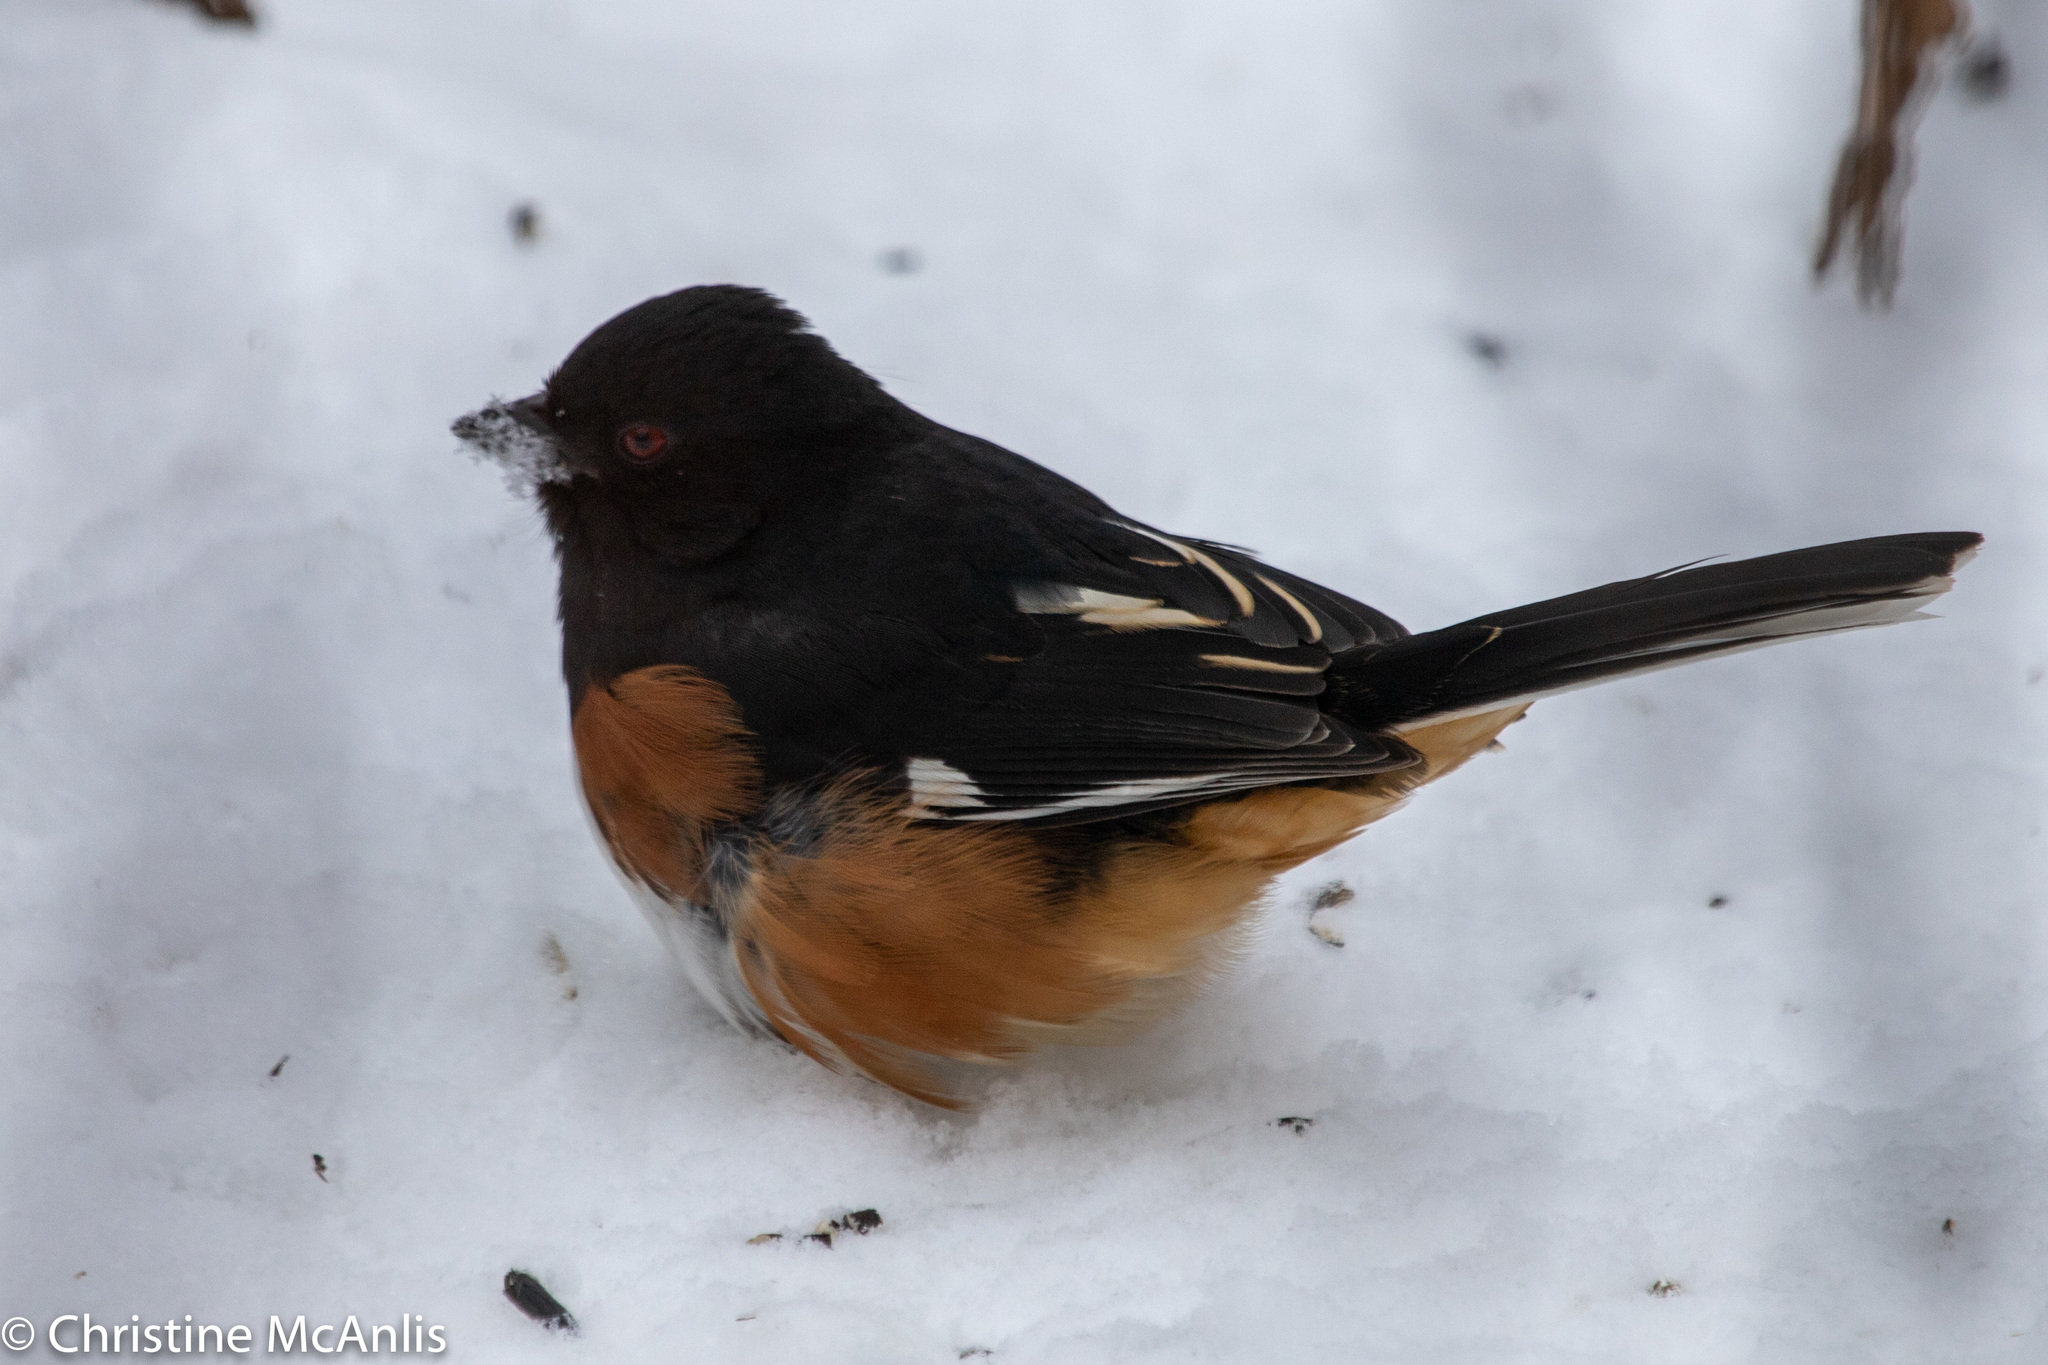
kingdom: Animalia
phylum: Chordata
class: Aves
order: Passeriformes
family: Passerellidae
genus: Pipilo
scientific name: Pipilo erythrophthalmus
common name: Eastern towhee
